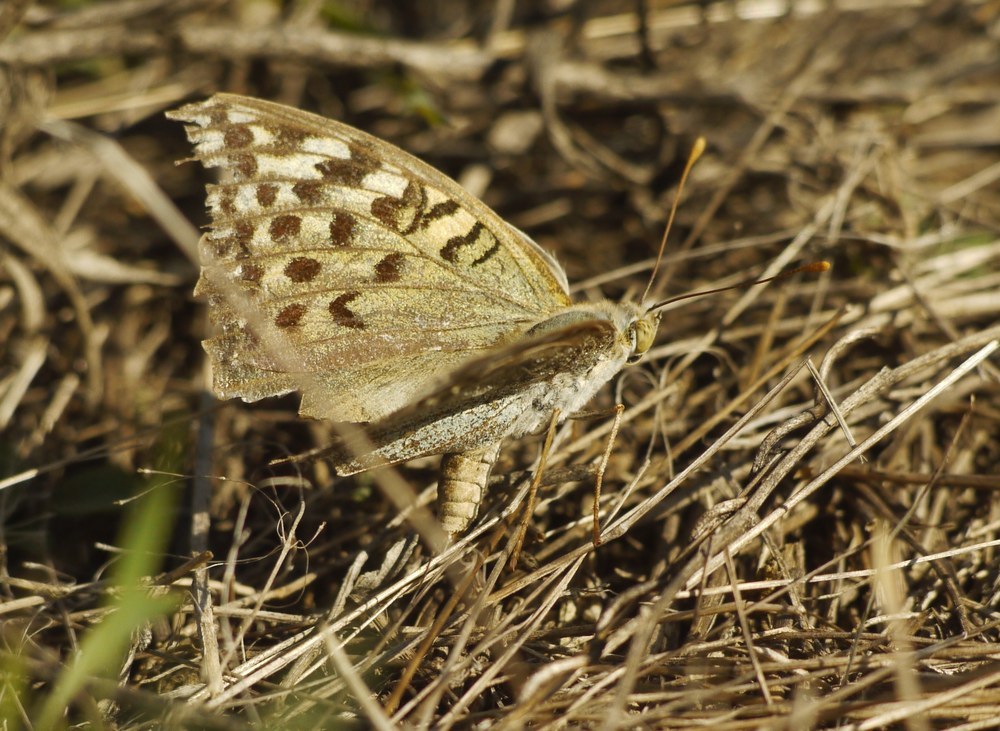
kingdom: Animalia
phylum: Arthropoda
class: Insecta
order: Lepidoptera
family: Nymphalidae
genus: Damora
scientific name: Damora pandora
